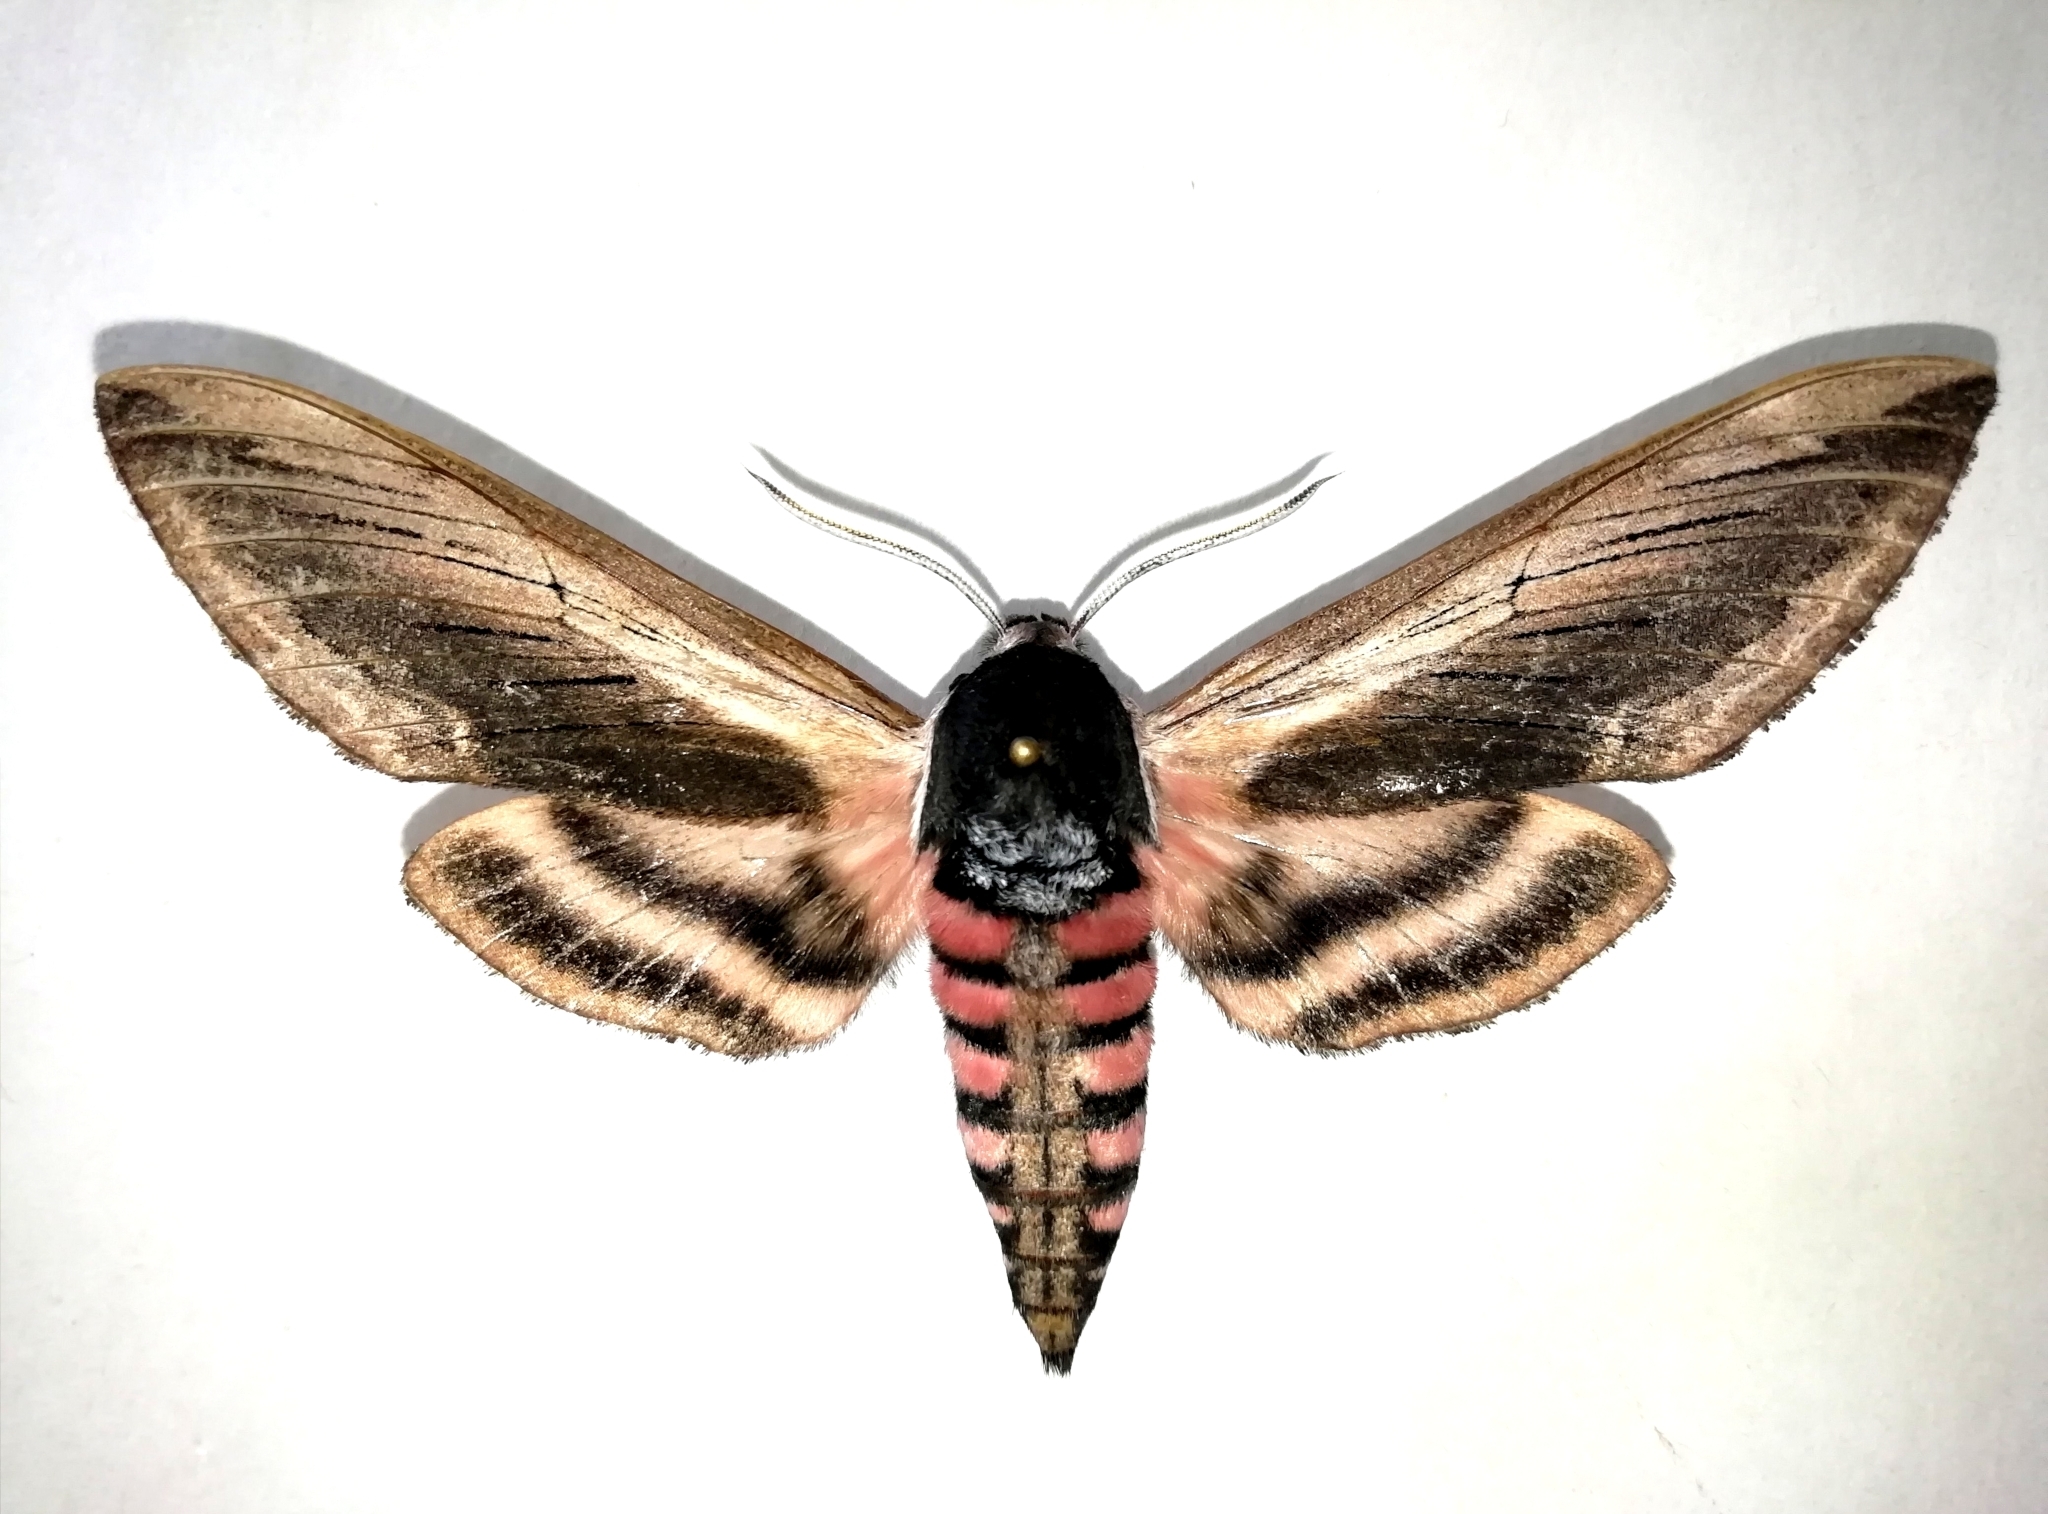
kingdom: Animalia
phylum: Arthropoda
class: Insecta
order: Lepidoptera
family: Sphingidae
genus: Sphinx
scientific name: Sphinx ligustri
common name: Privet hawk-moth
